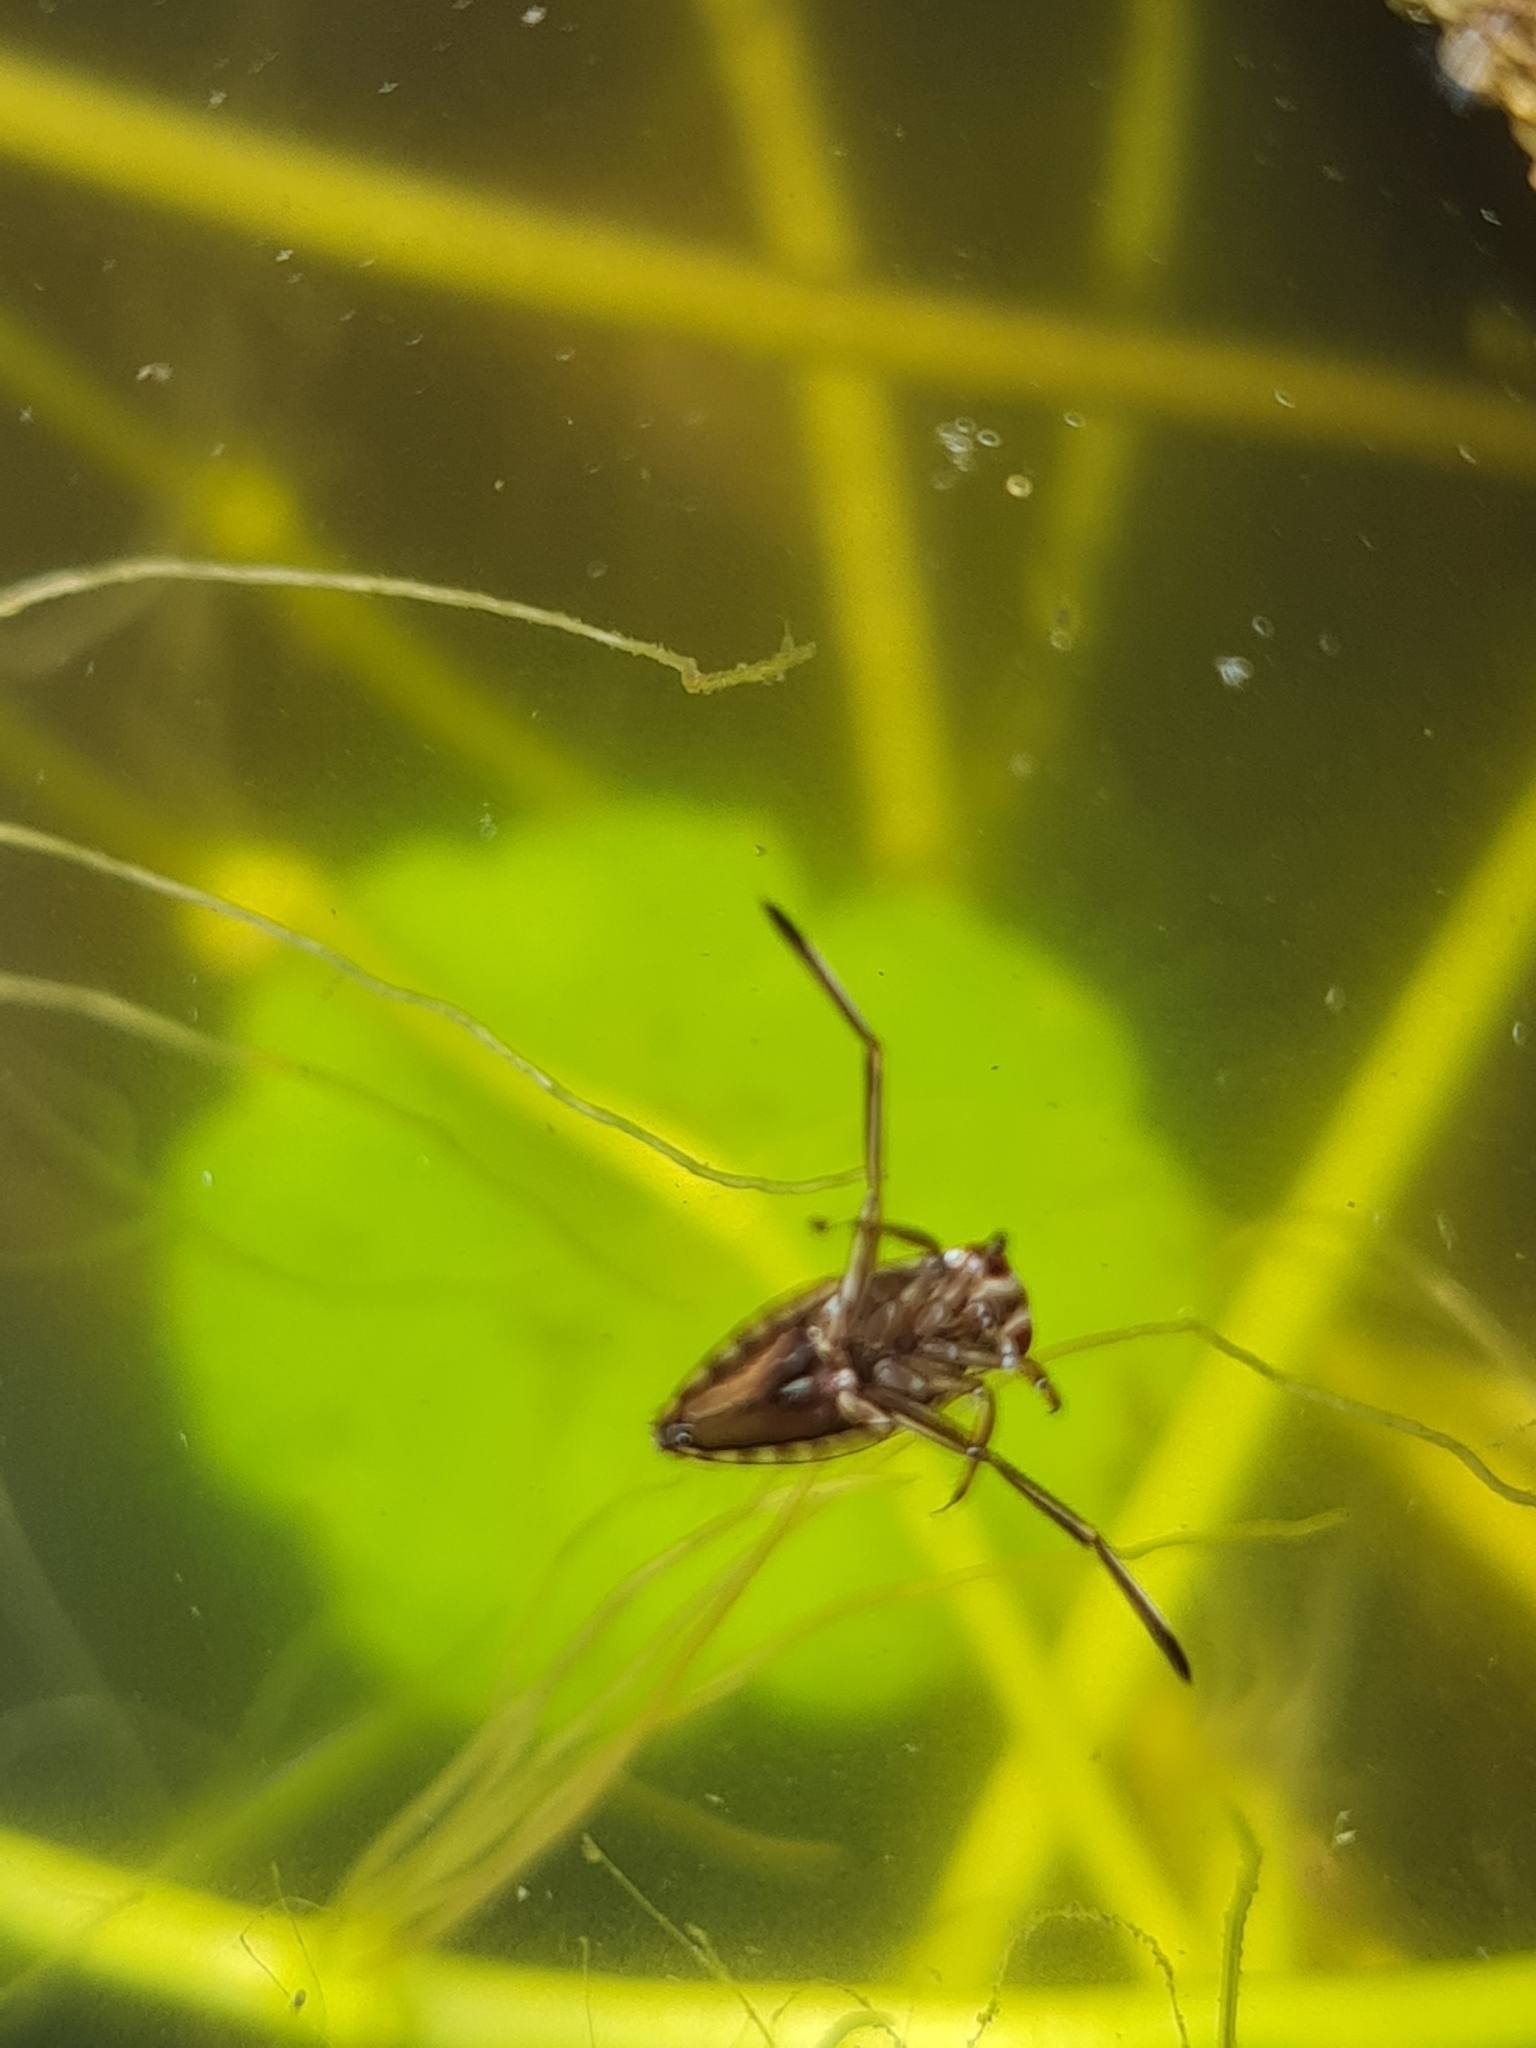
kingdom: Animalia
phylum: Arthropoda
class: Insecta
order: Hemiptera
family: Notonectidae
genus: Notonecta
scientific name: Notonecta
